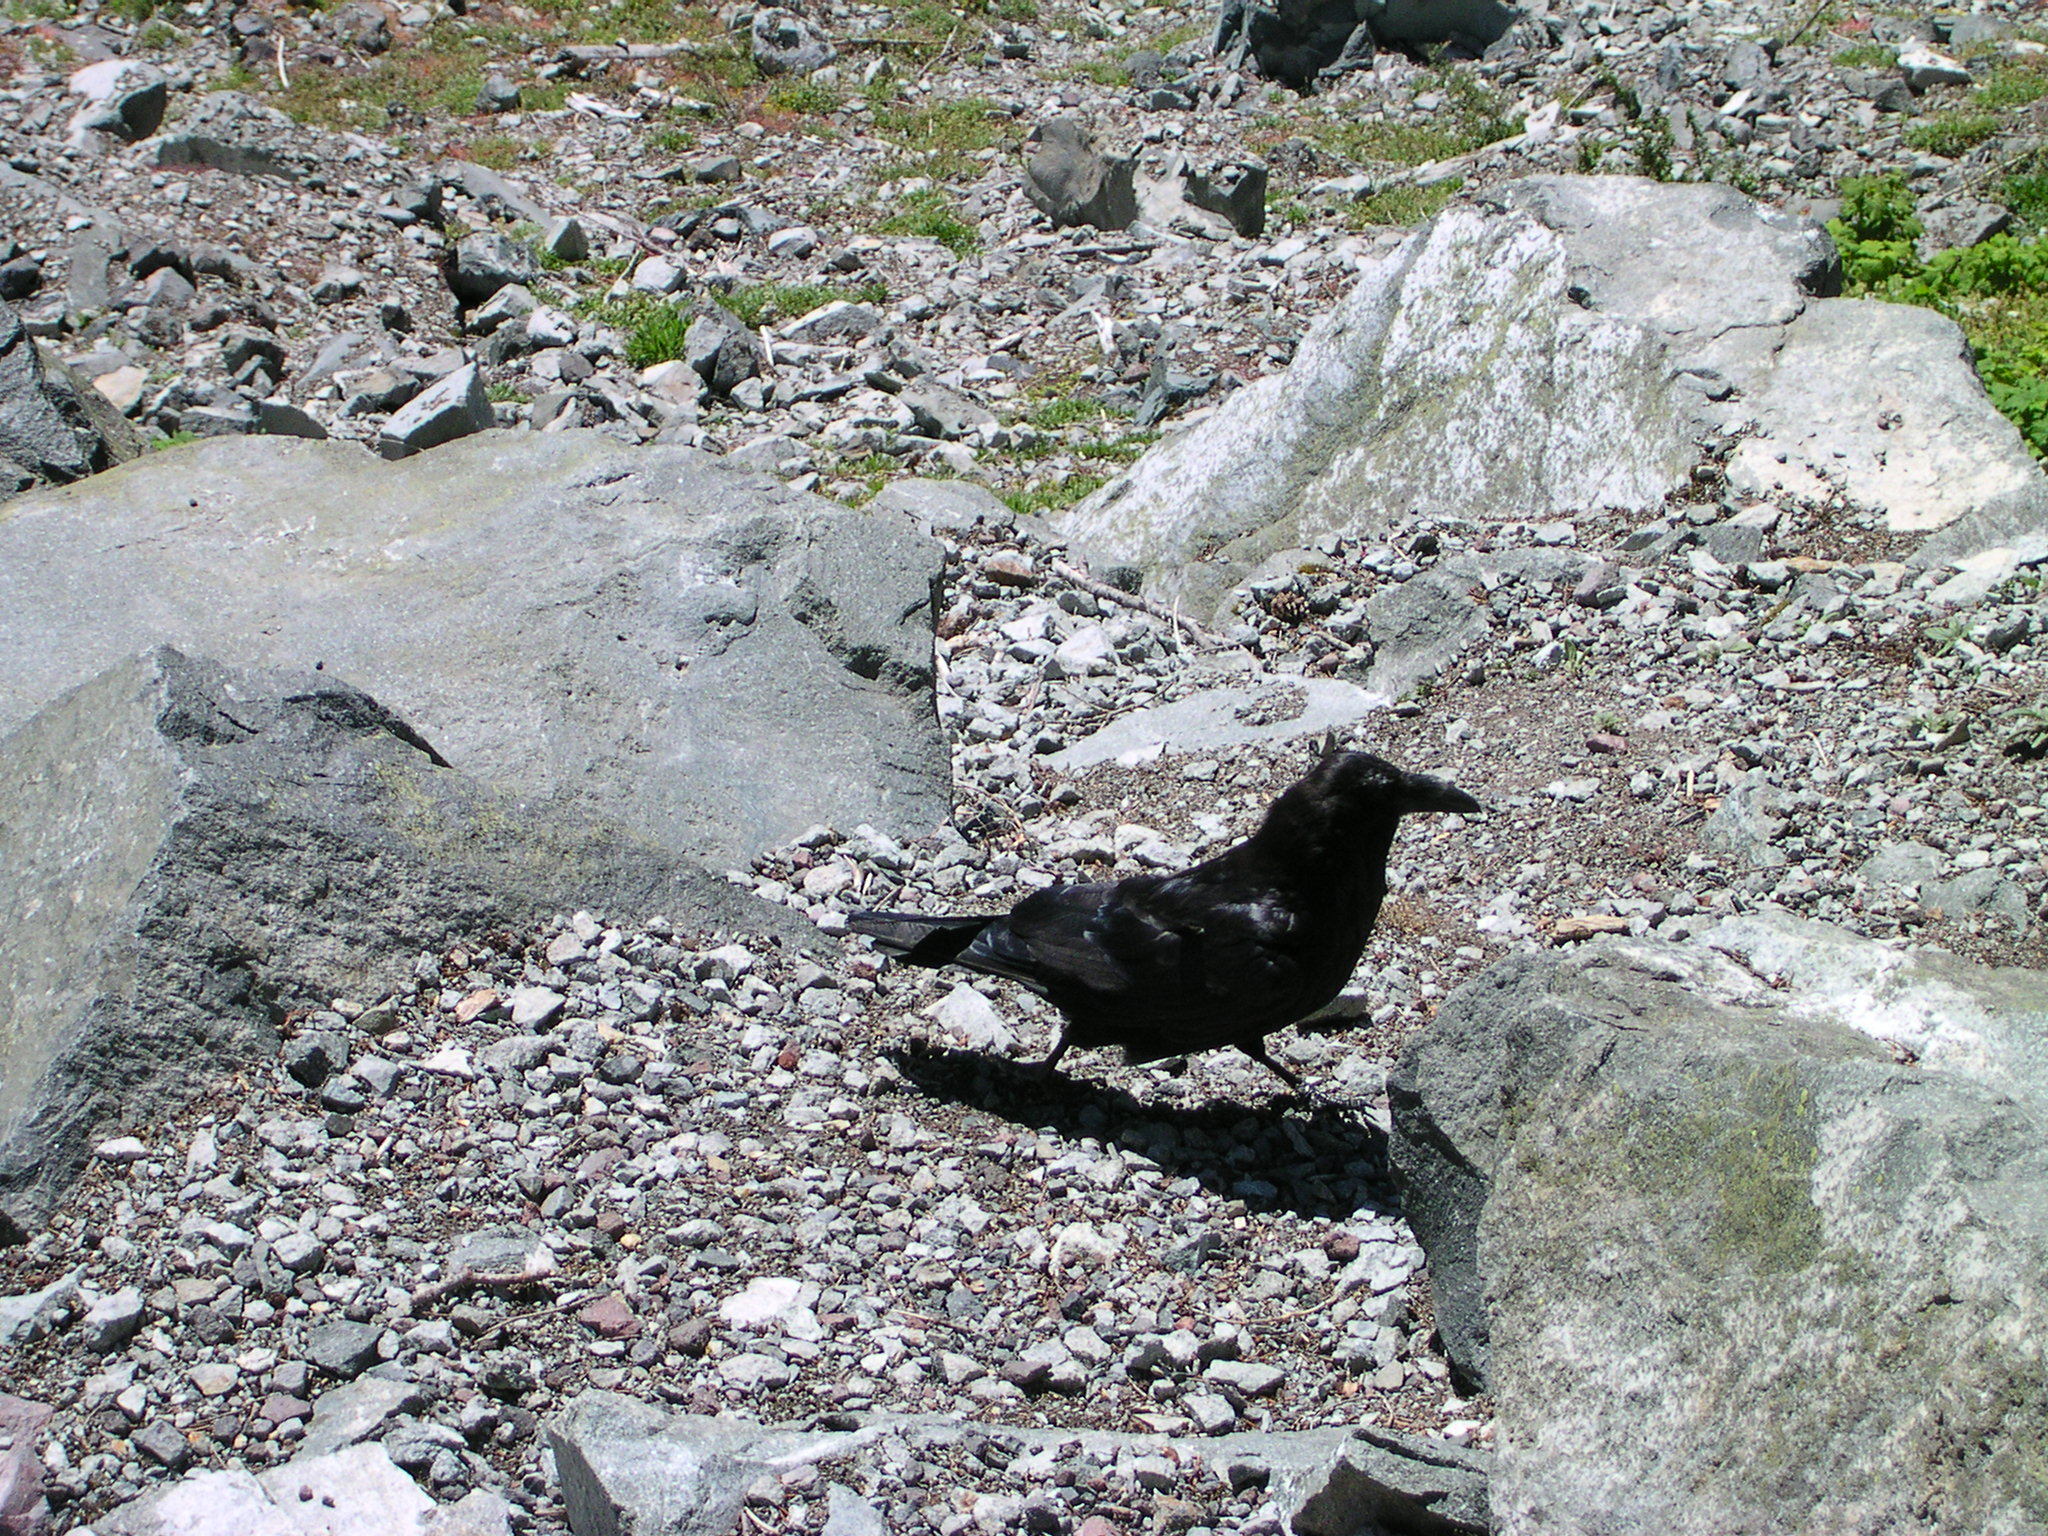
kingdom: Animalia
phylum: Chordata
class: Aves
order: Passeriformes
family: Corvidae
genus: Corvus
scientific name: Corvus corax
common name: Common raven
